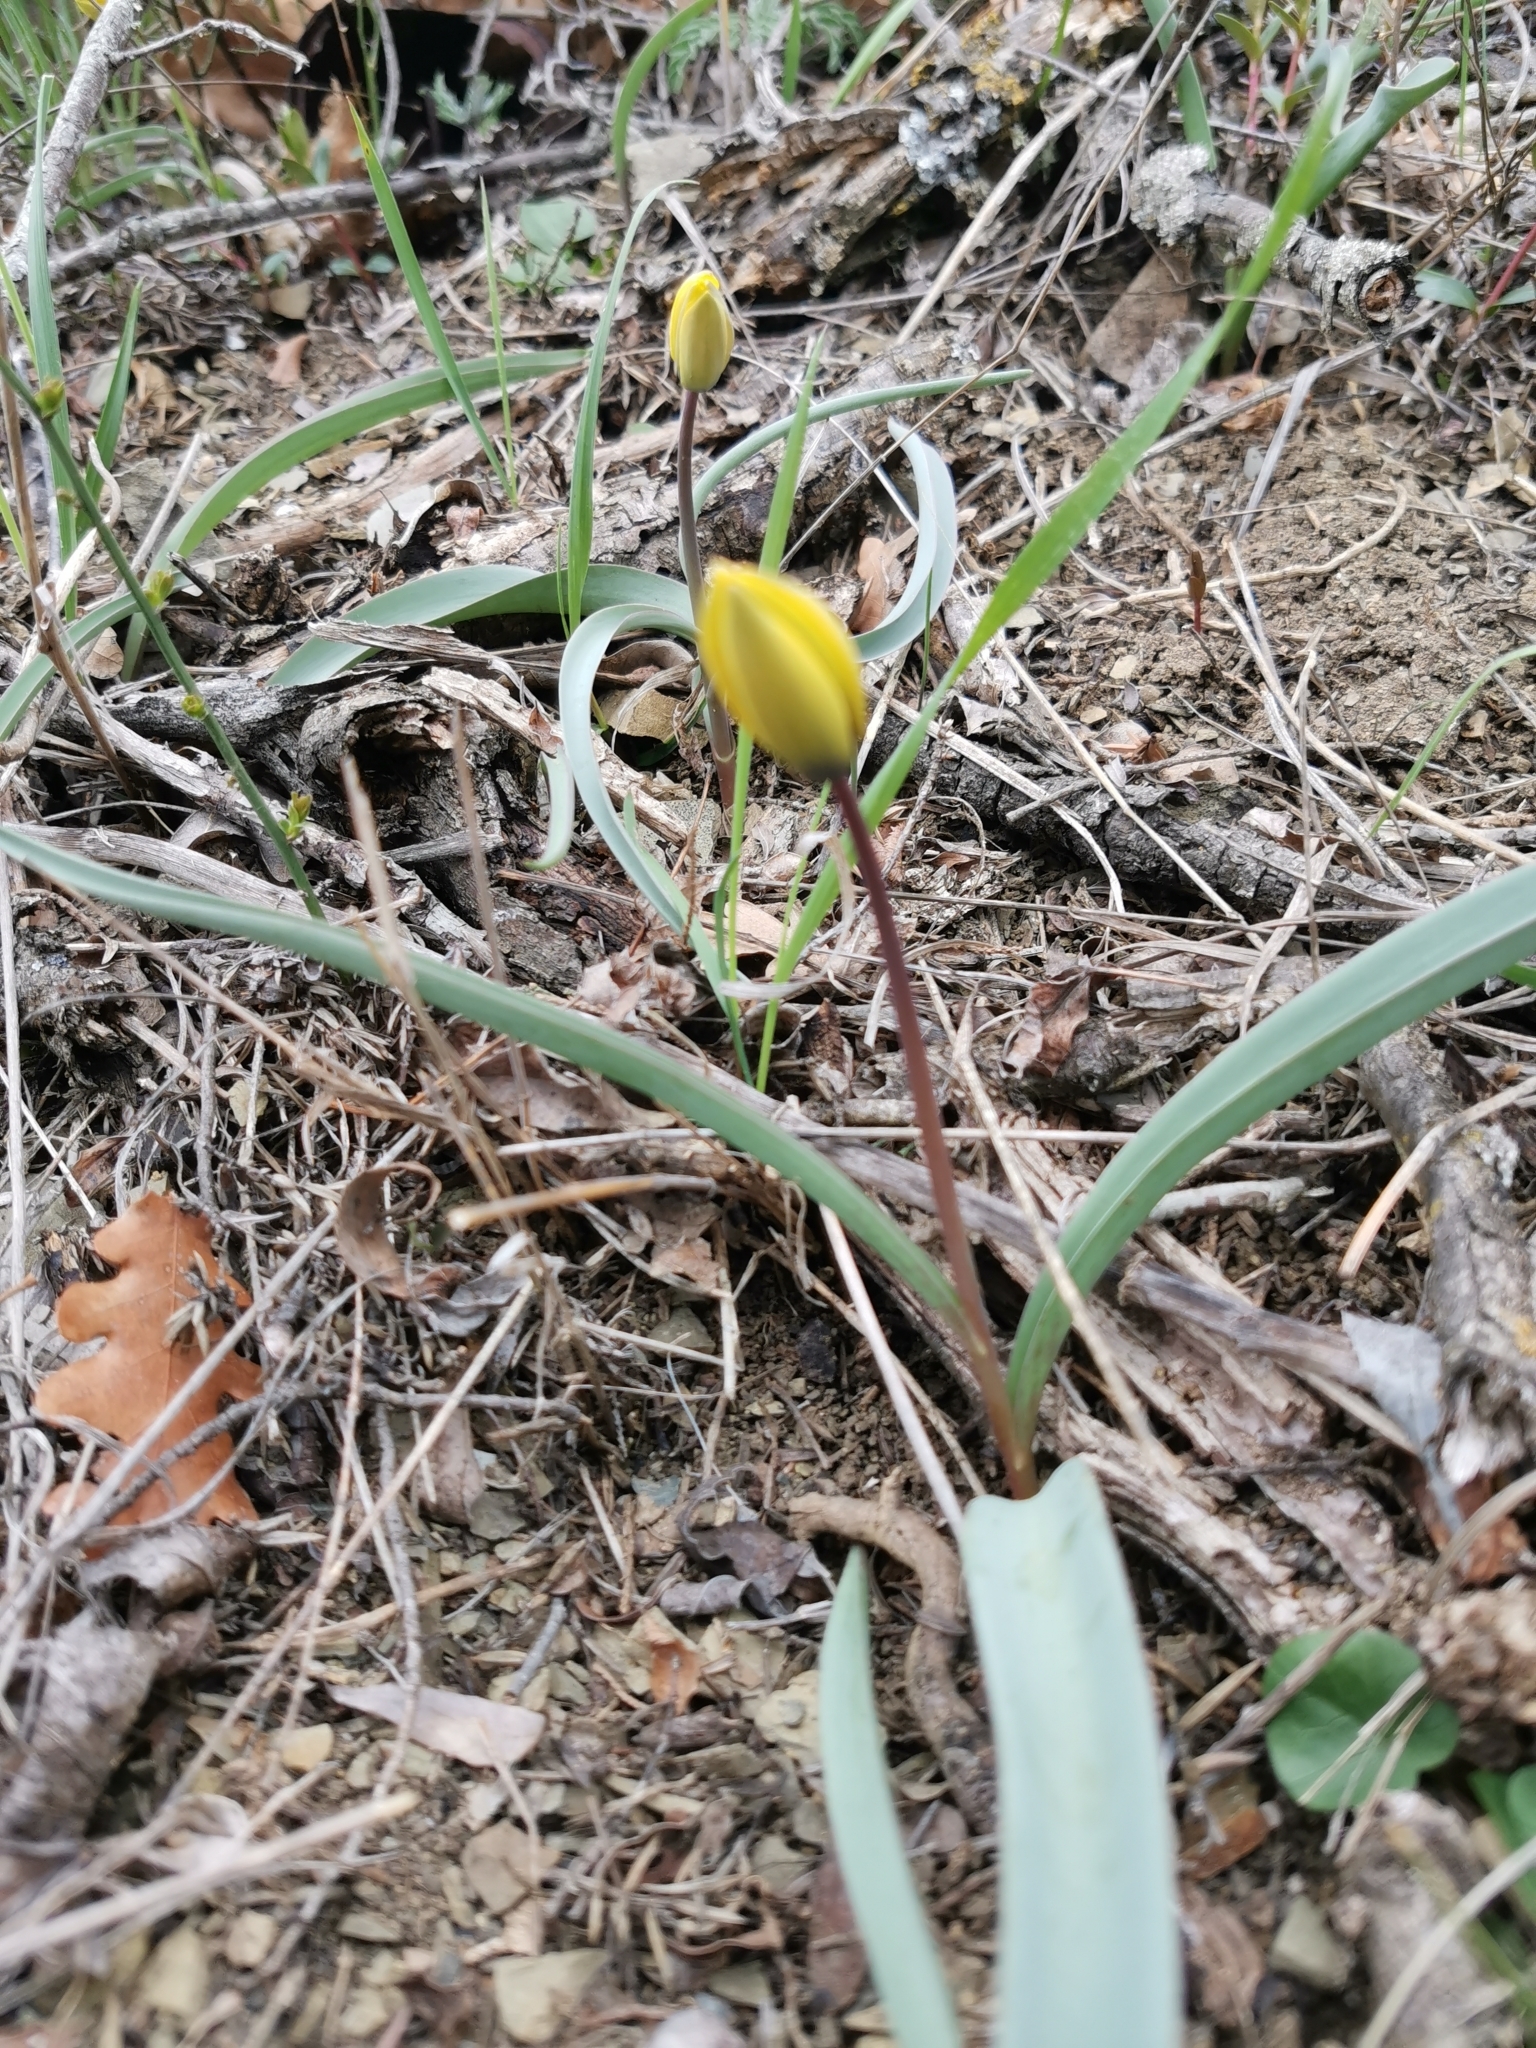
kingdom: Plantae
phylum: Tracheophyta
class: Liliopsida
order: Liliales
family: Liliaceae
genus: Tulipa
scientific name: Tulipa sylvestris
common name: Wild tulip
